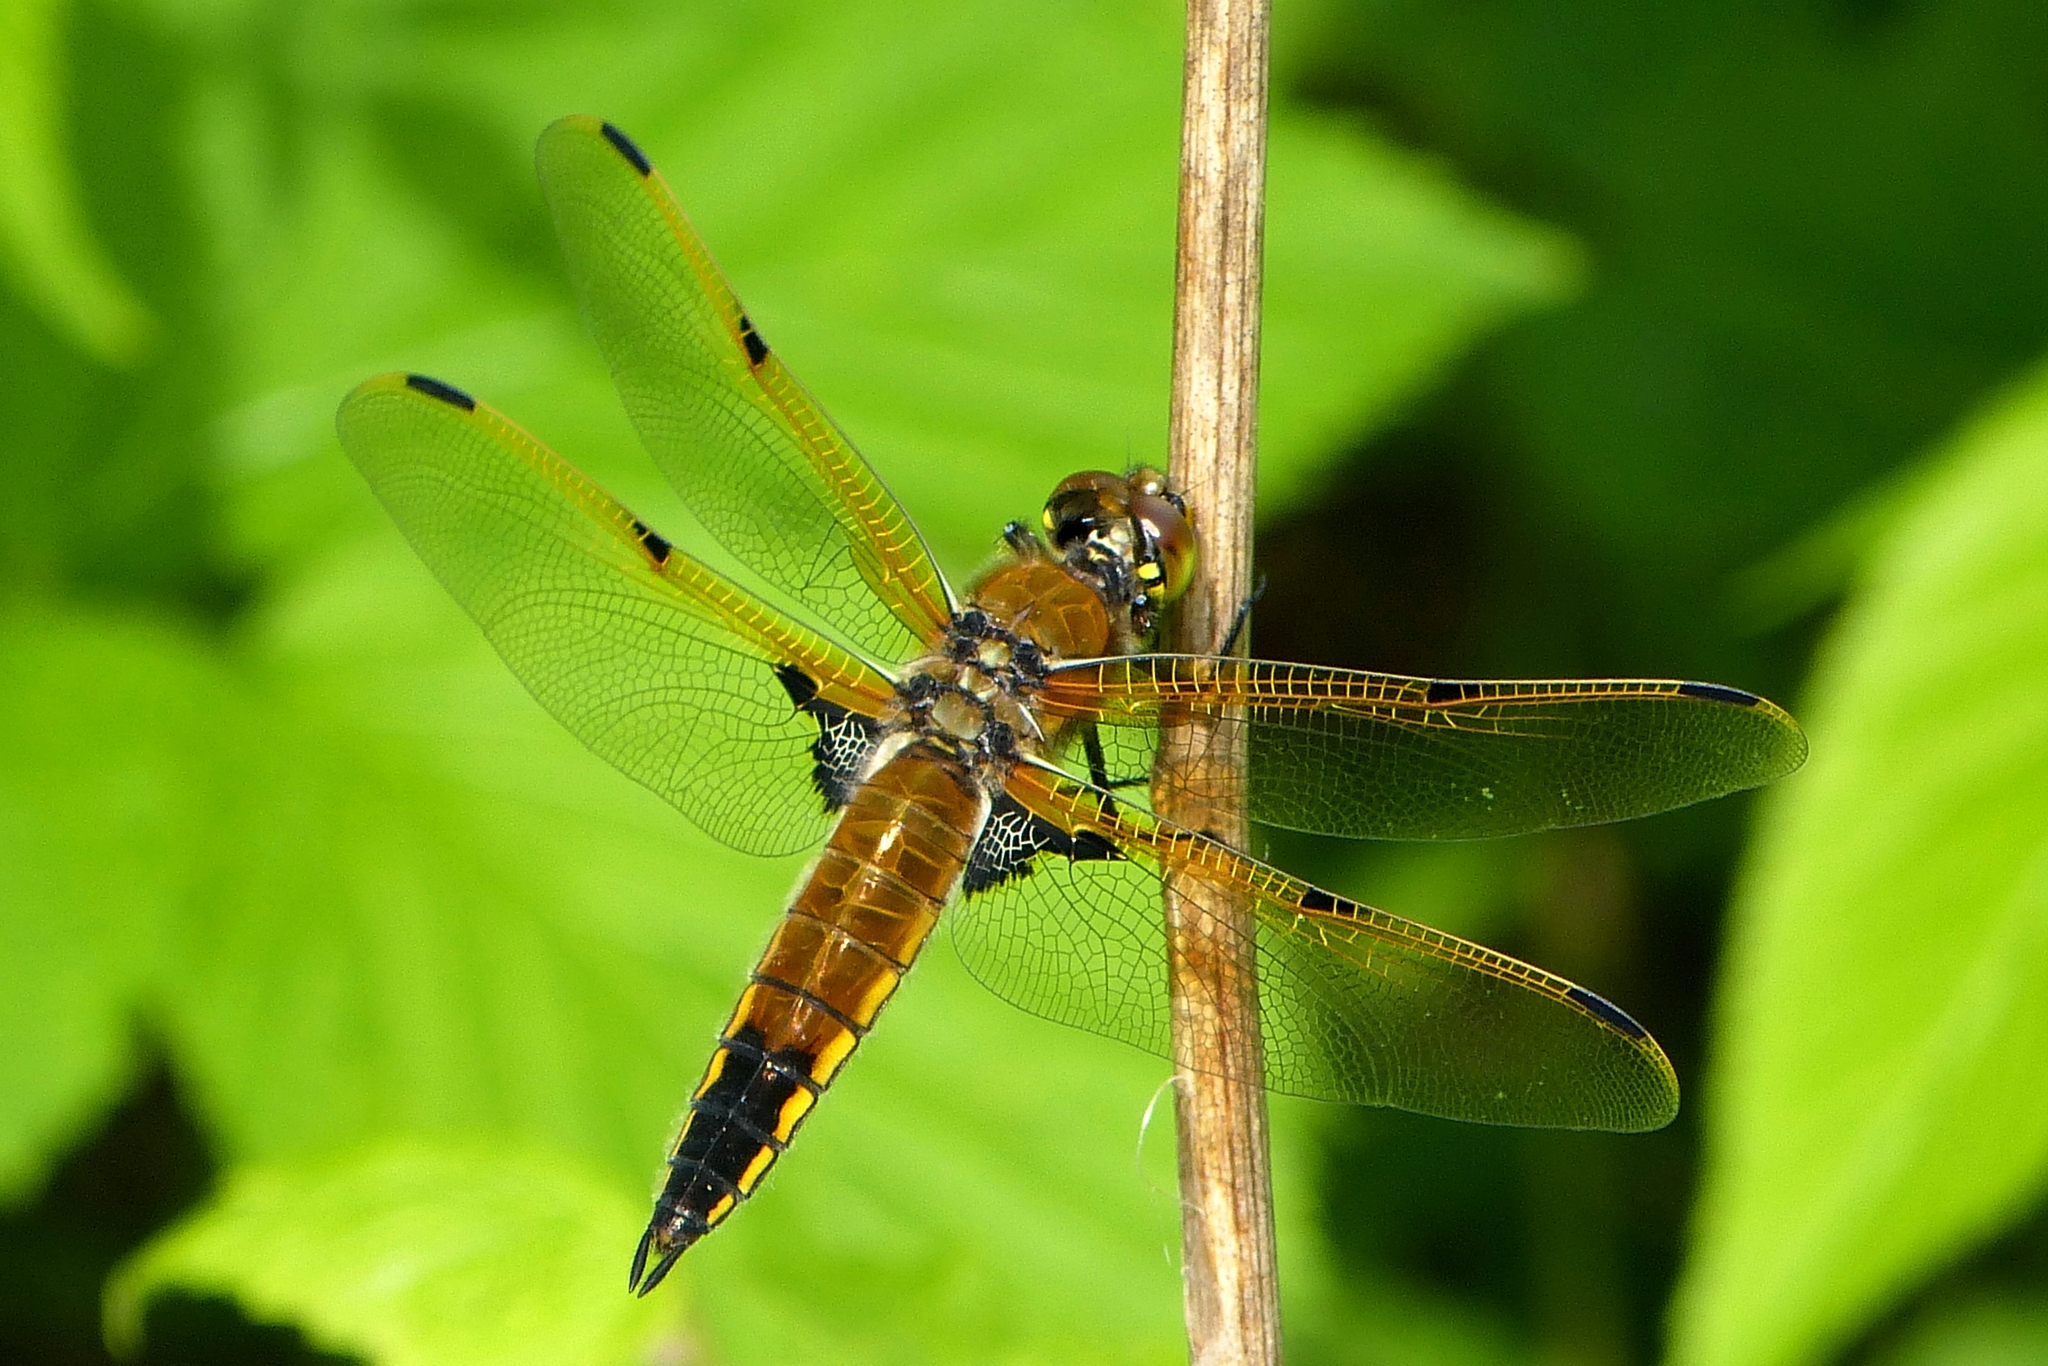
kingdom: Animalia
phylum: Arthropoda
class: Insecta
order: Odonata
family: Libellulidae
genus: Libellula
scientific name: Libellula quadrimaculata
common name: Four-spotted chaser
